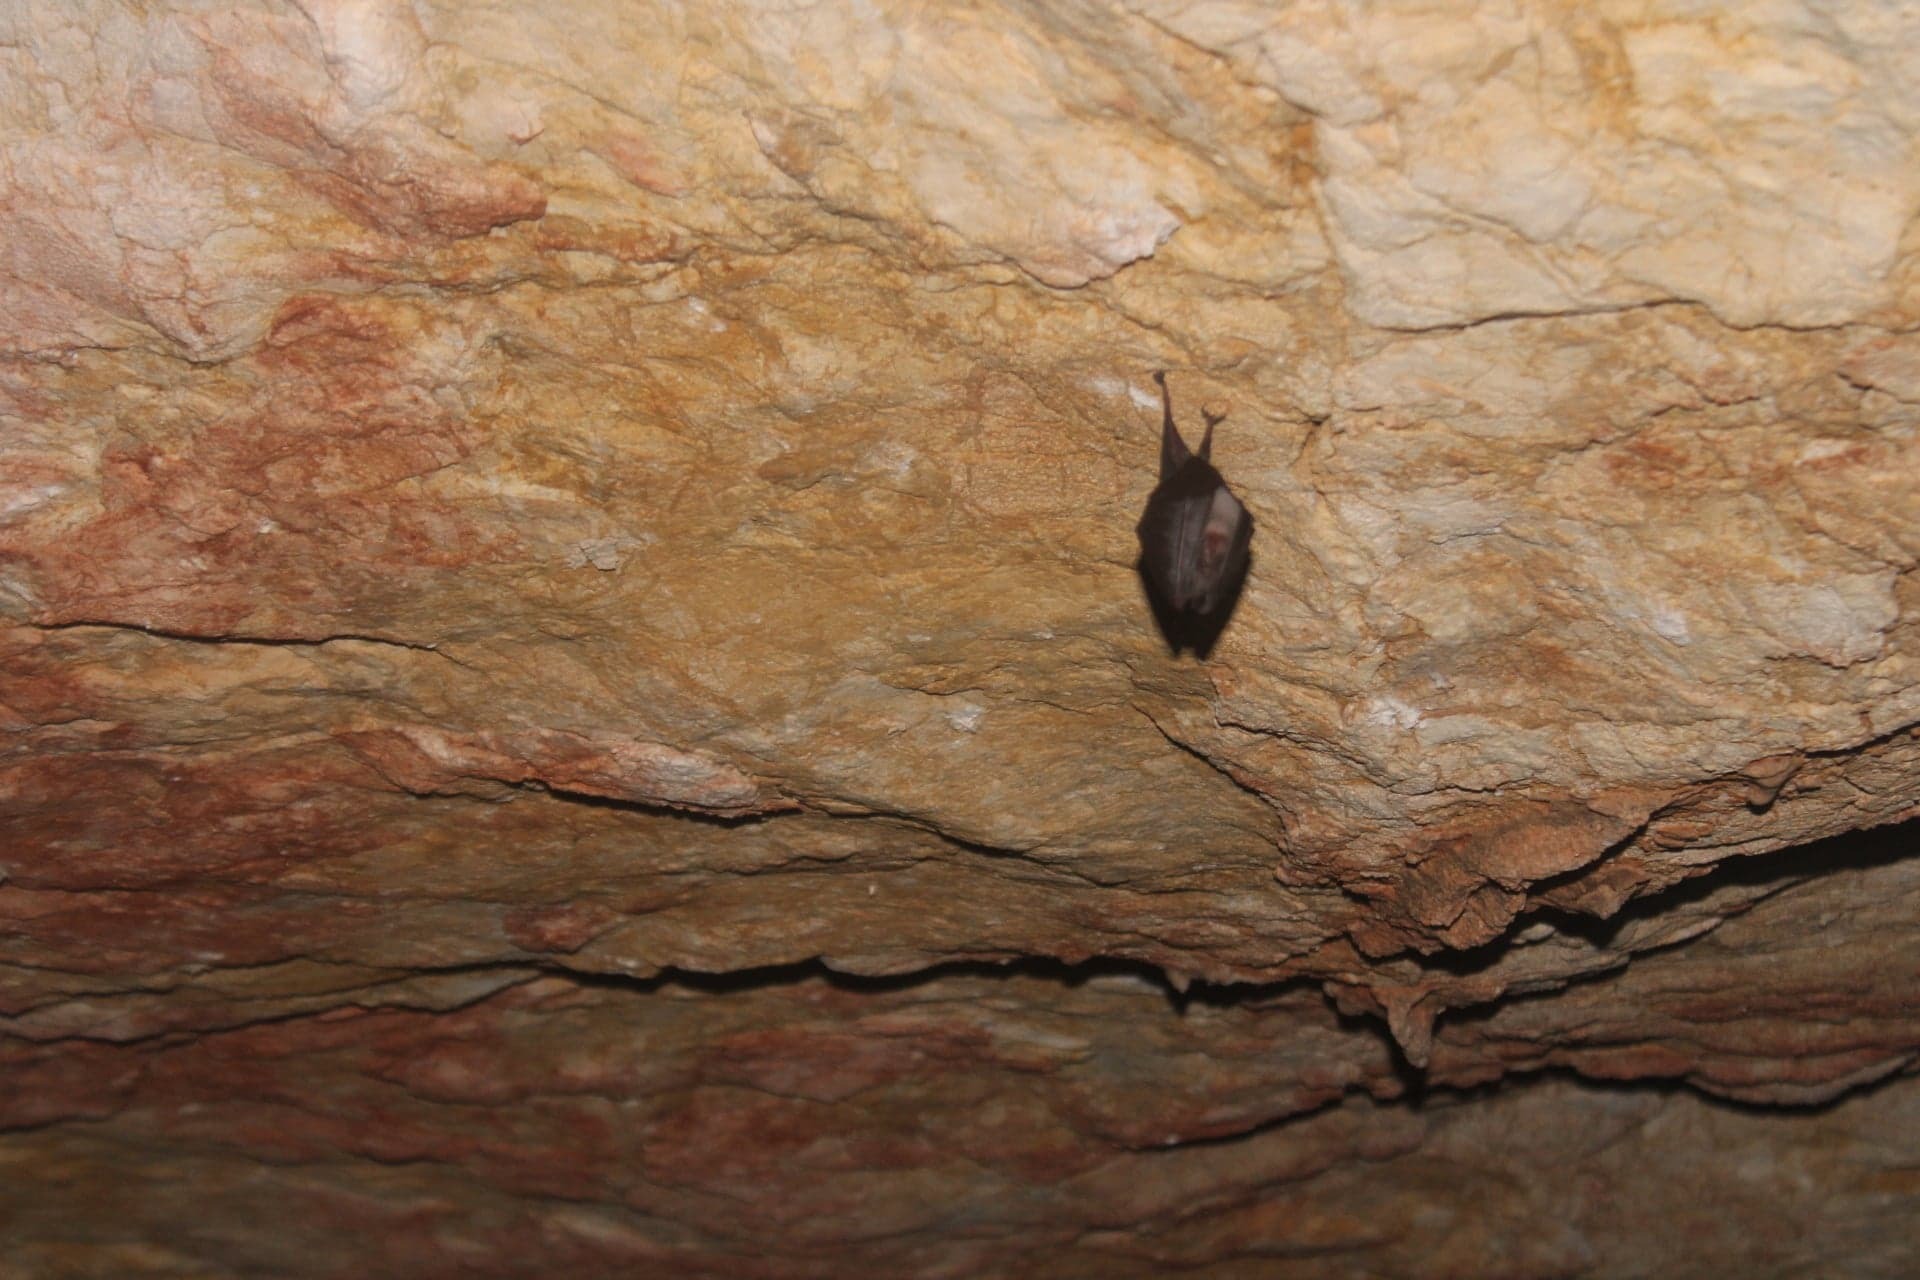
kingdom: Animalia
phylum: Chordata
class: Mammalia
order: Chiroptera
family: Rhinolophidae
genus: Rhinolophus
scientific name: Rhinolophus
